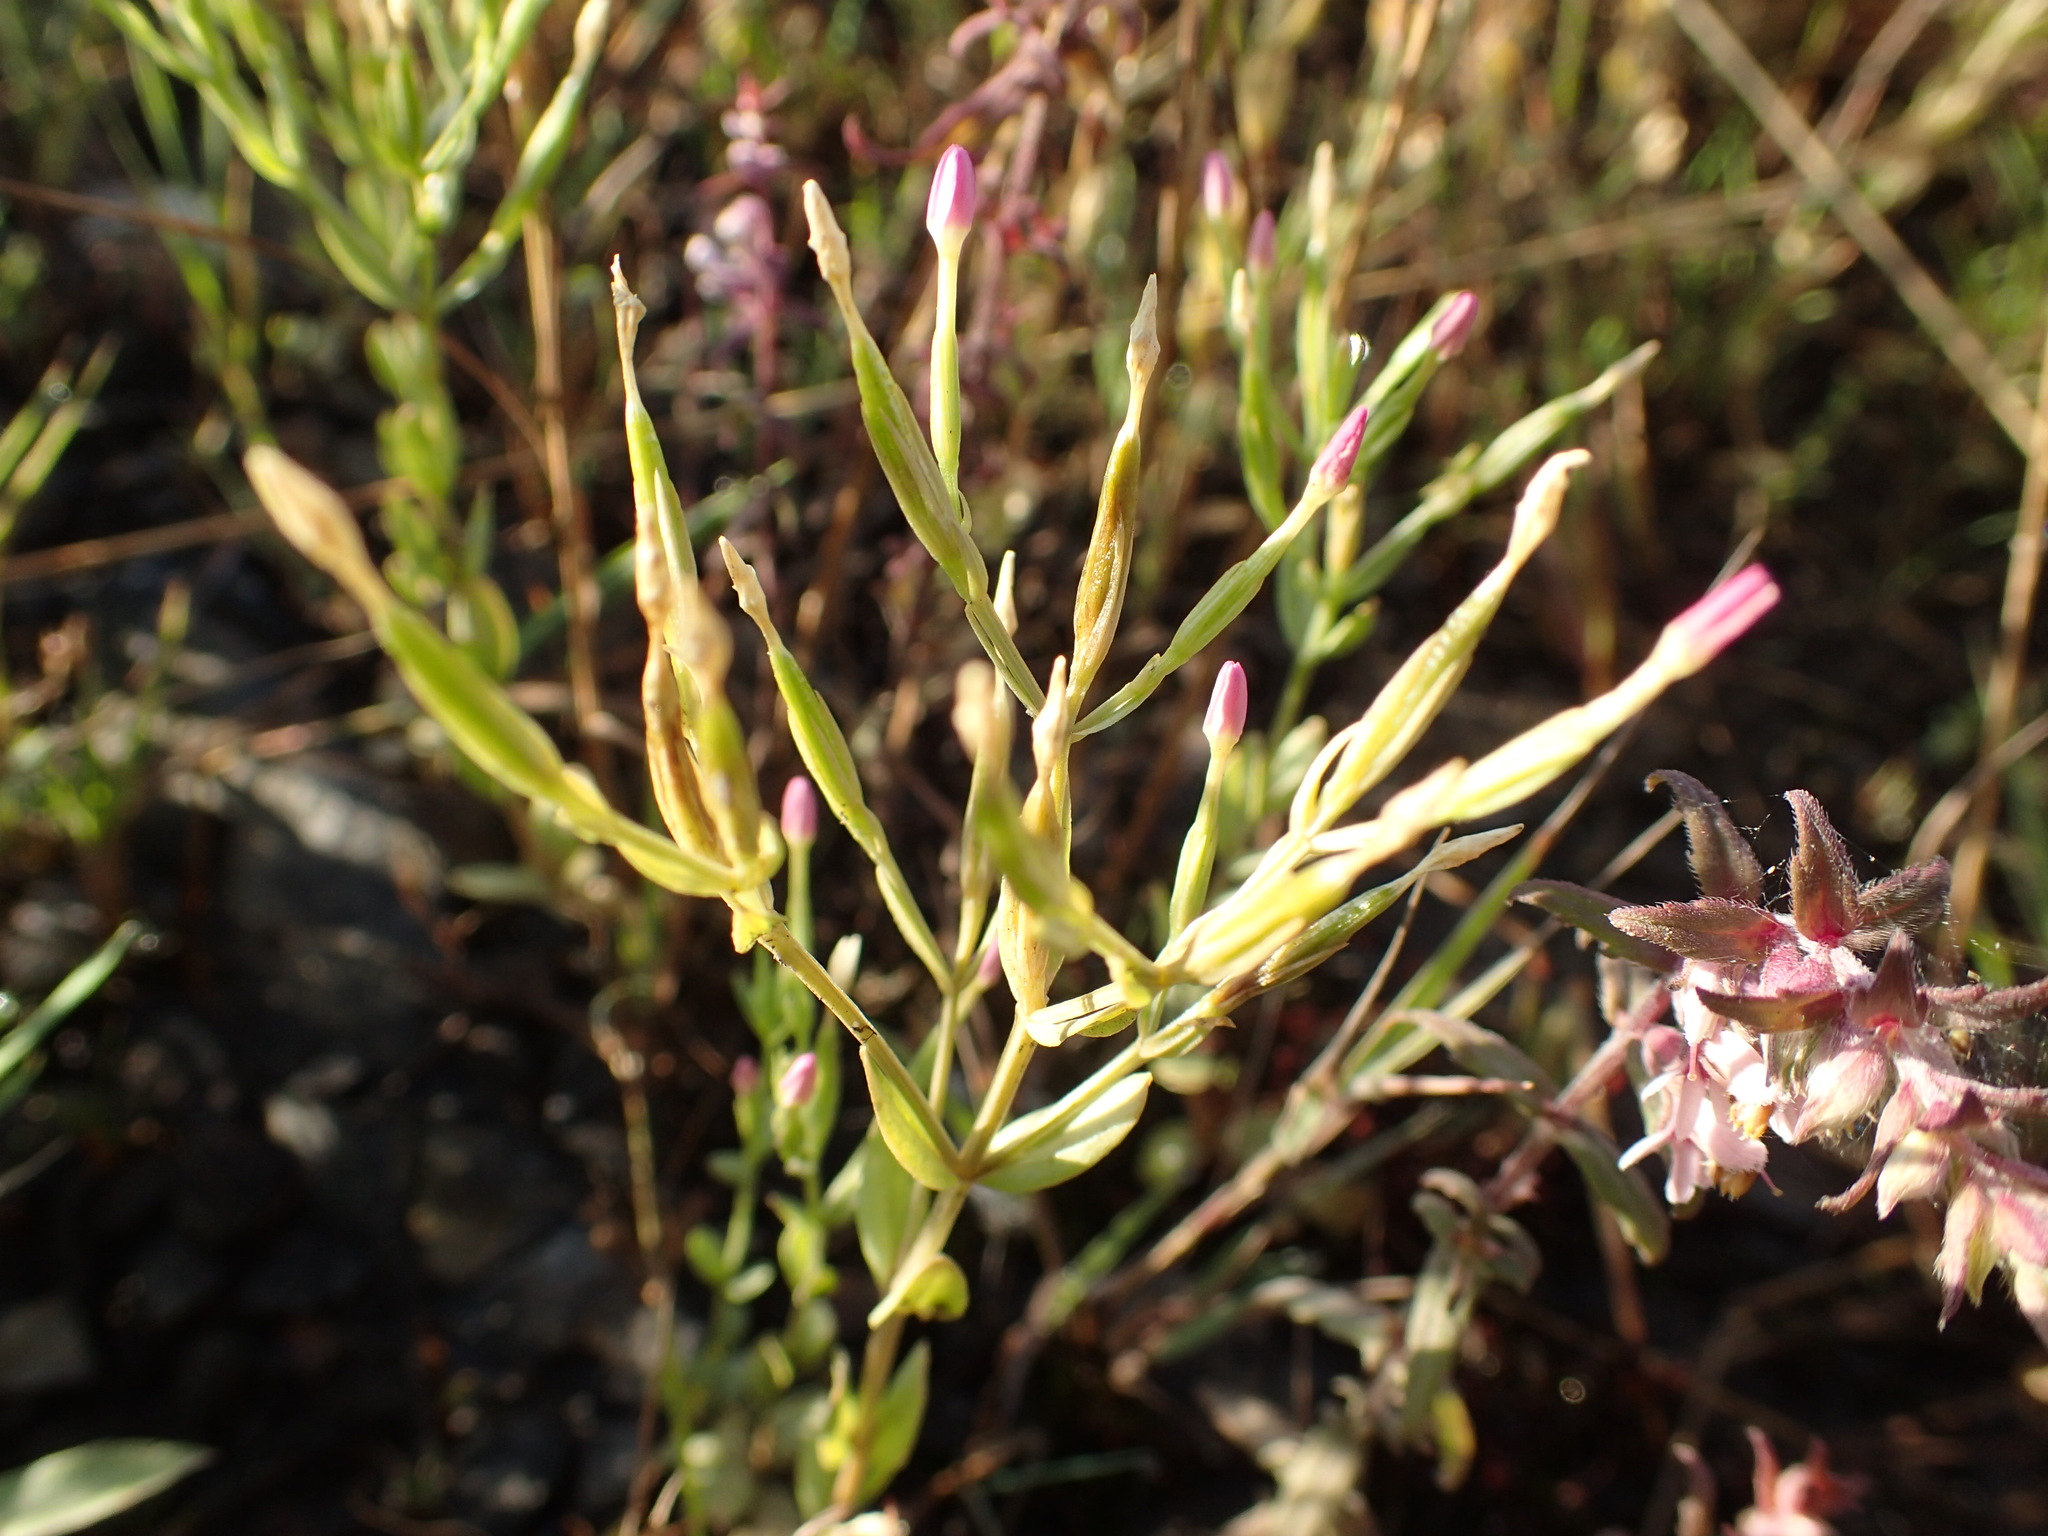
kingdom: Plantae
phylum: Tracheophyta
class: Magnoliopsida
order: Gentianales
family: Gentianaceae
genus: Centaurium
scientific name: Centaurium pulchellum
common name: Lesser centaury
